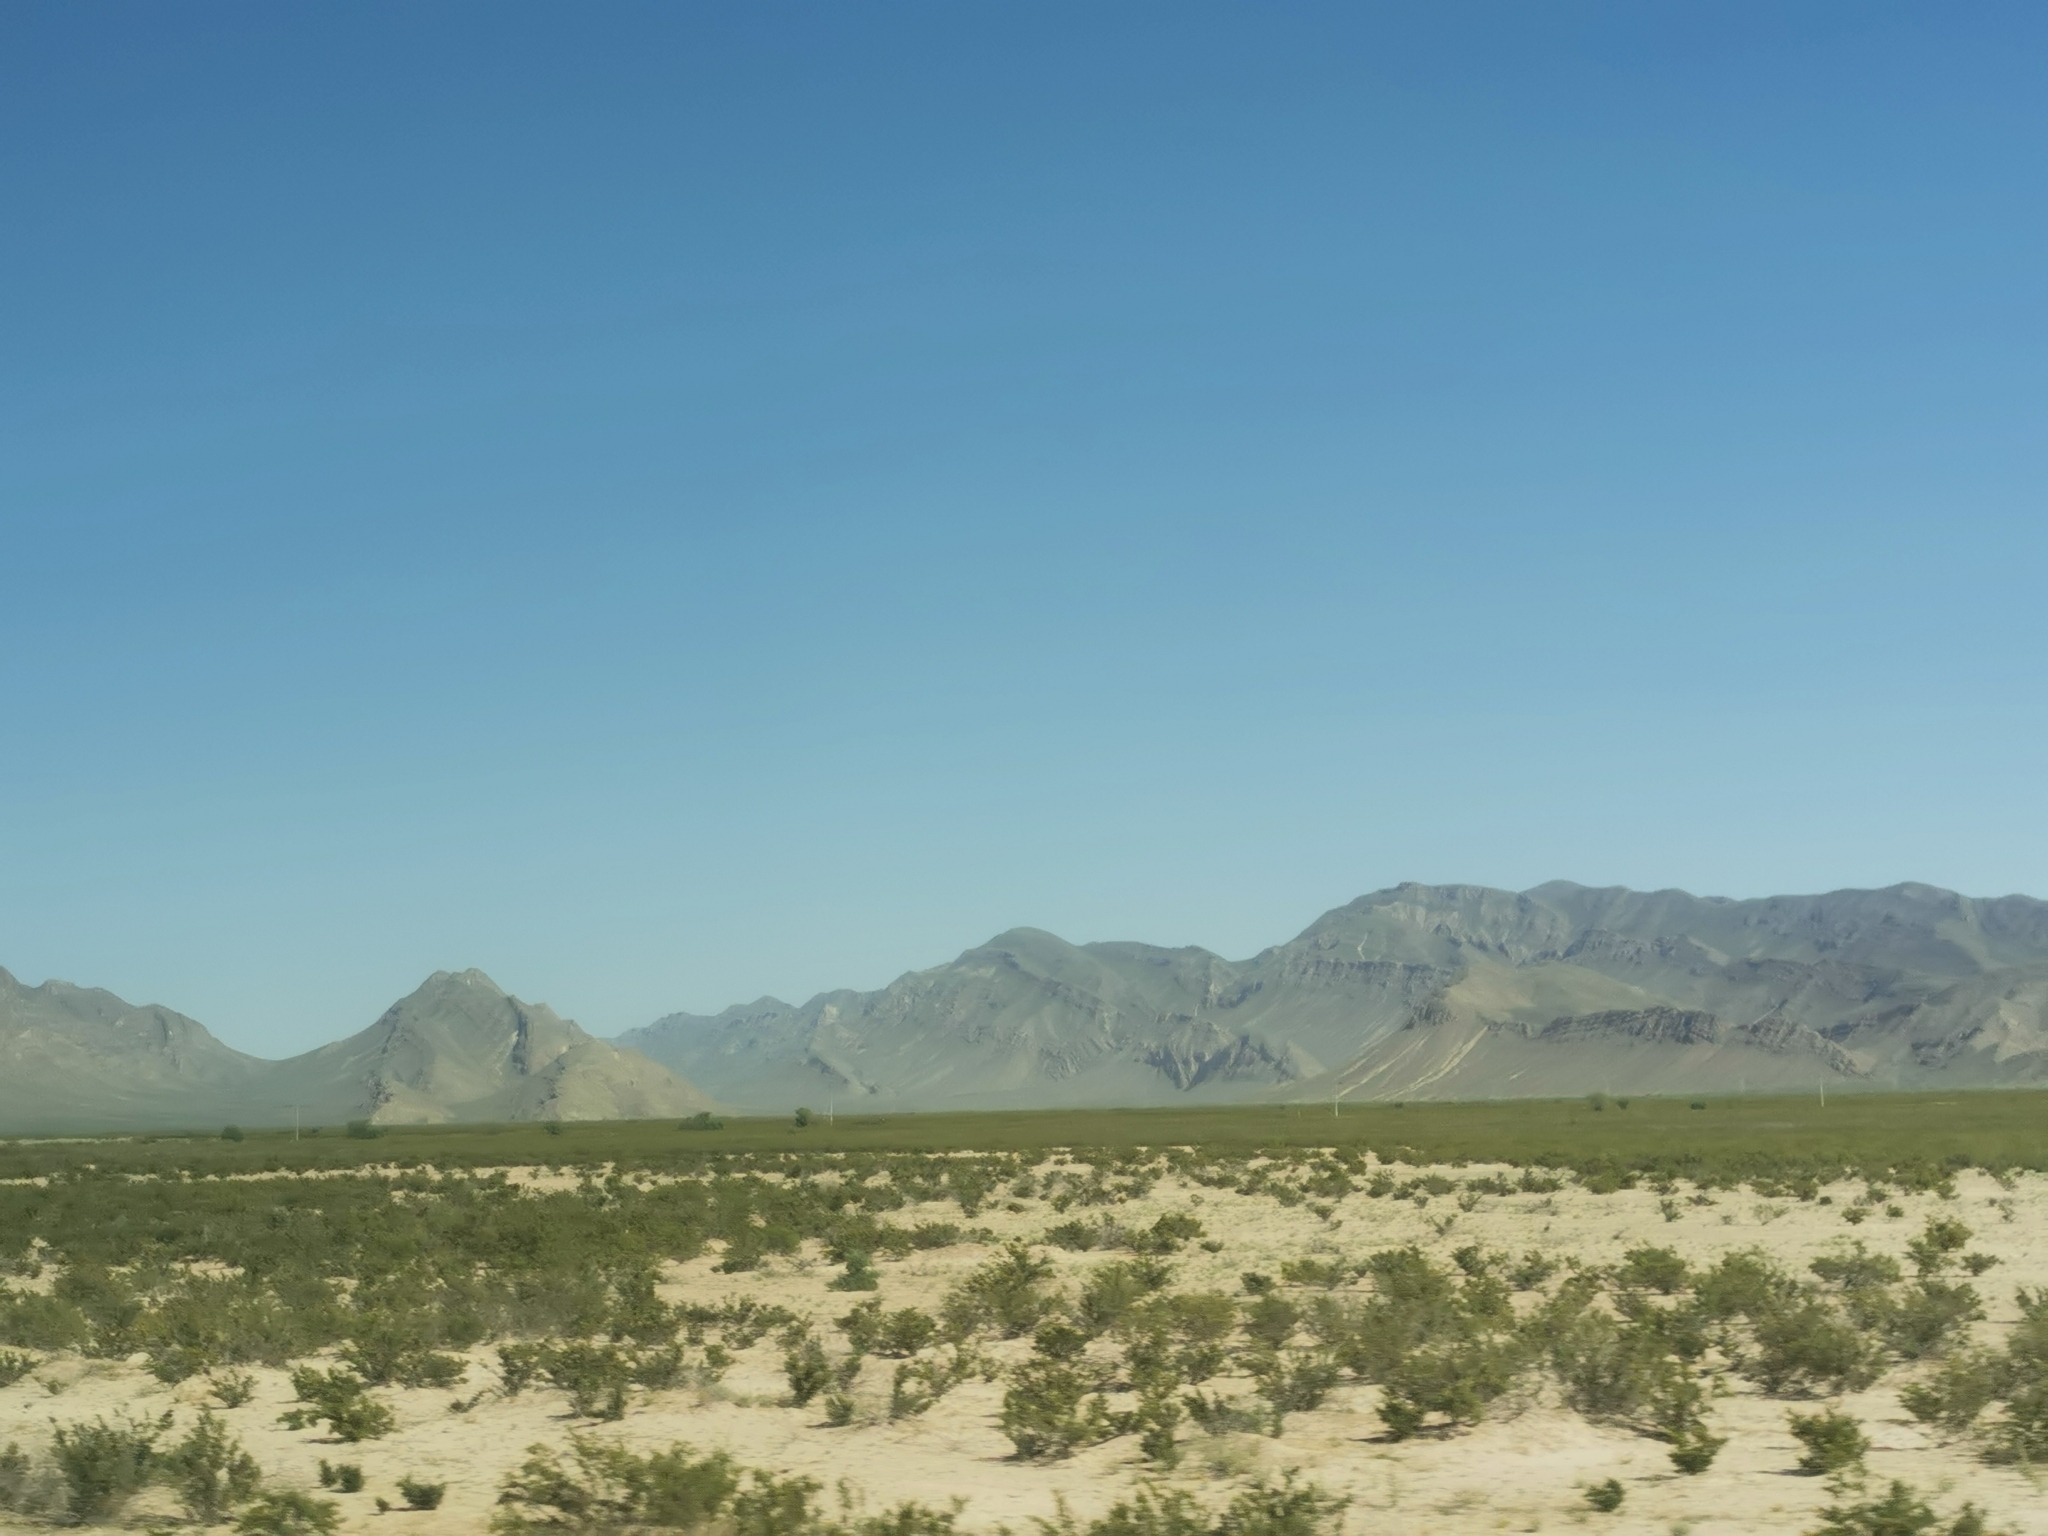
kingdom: Plantae
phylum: Tracheophyta
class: Magnoliopsida
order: Zygophyllales
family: Zygophyllaceae
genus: Larrea
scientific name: Larrea tridentata
